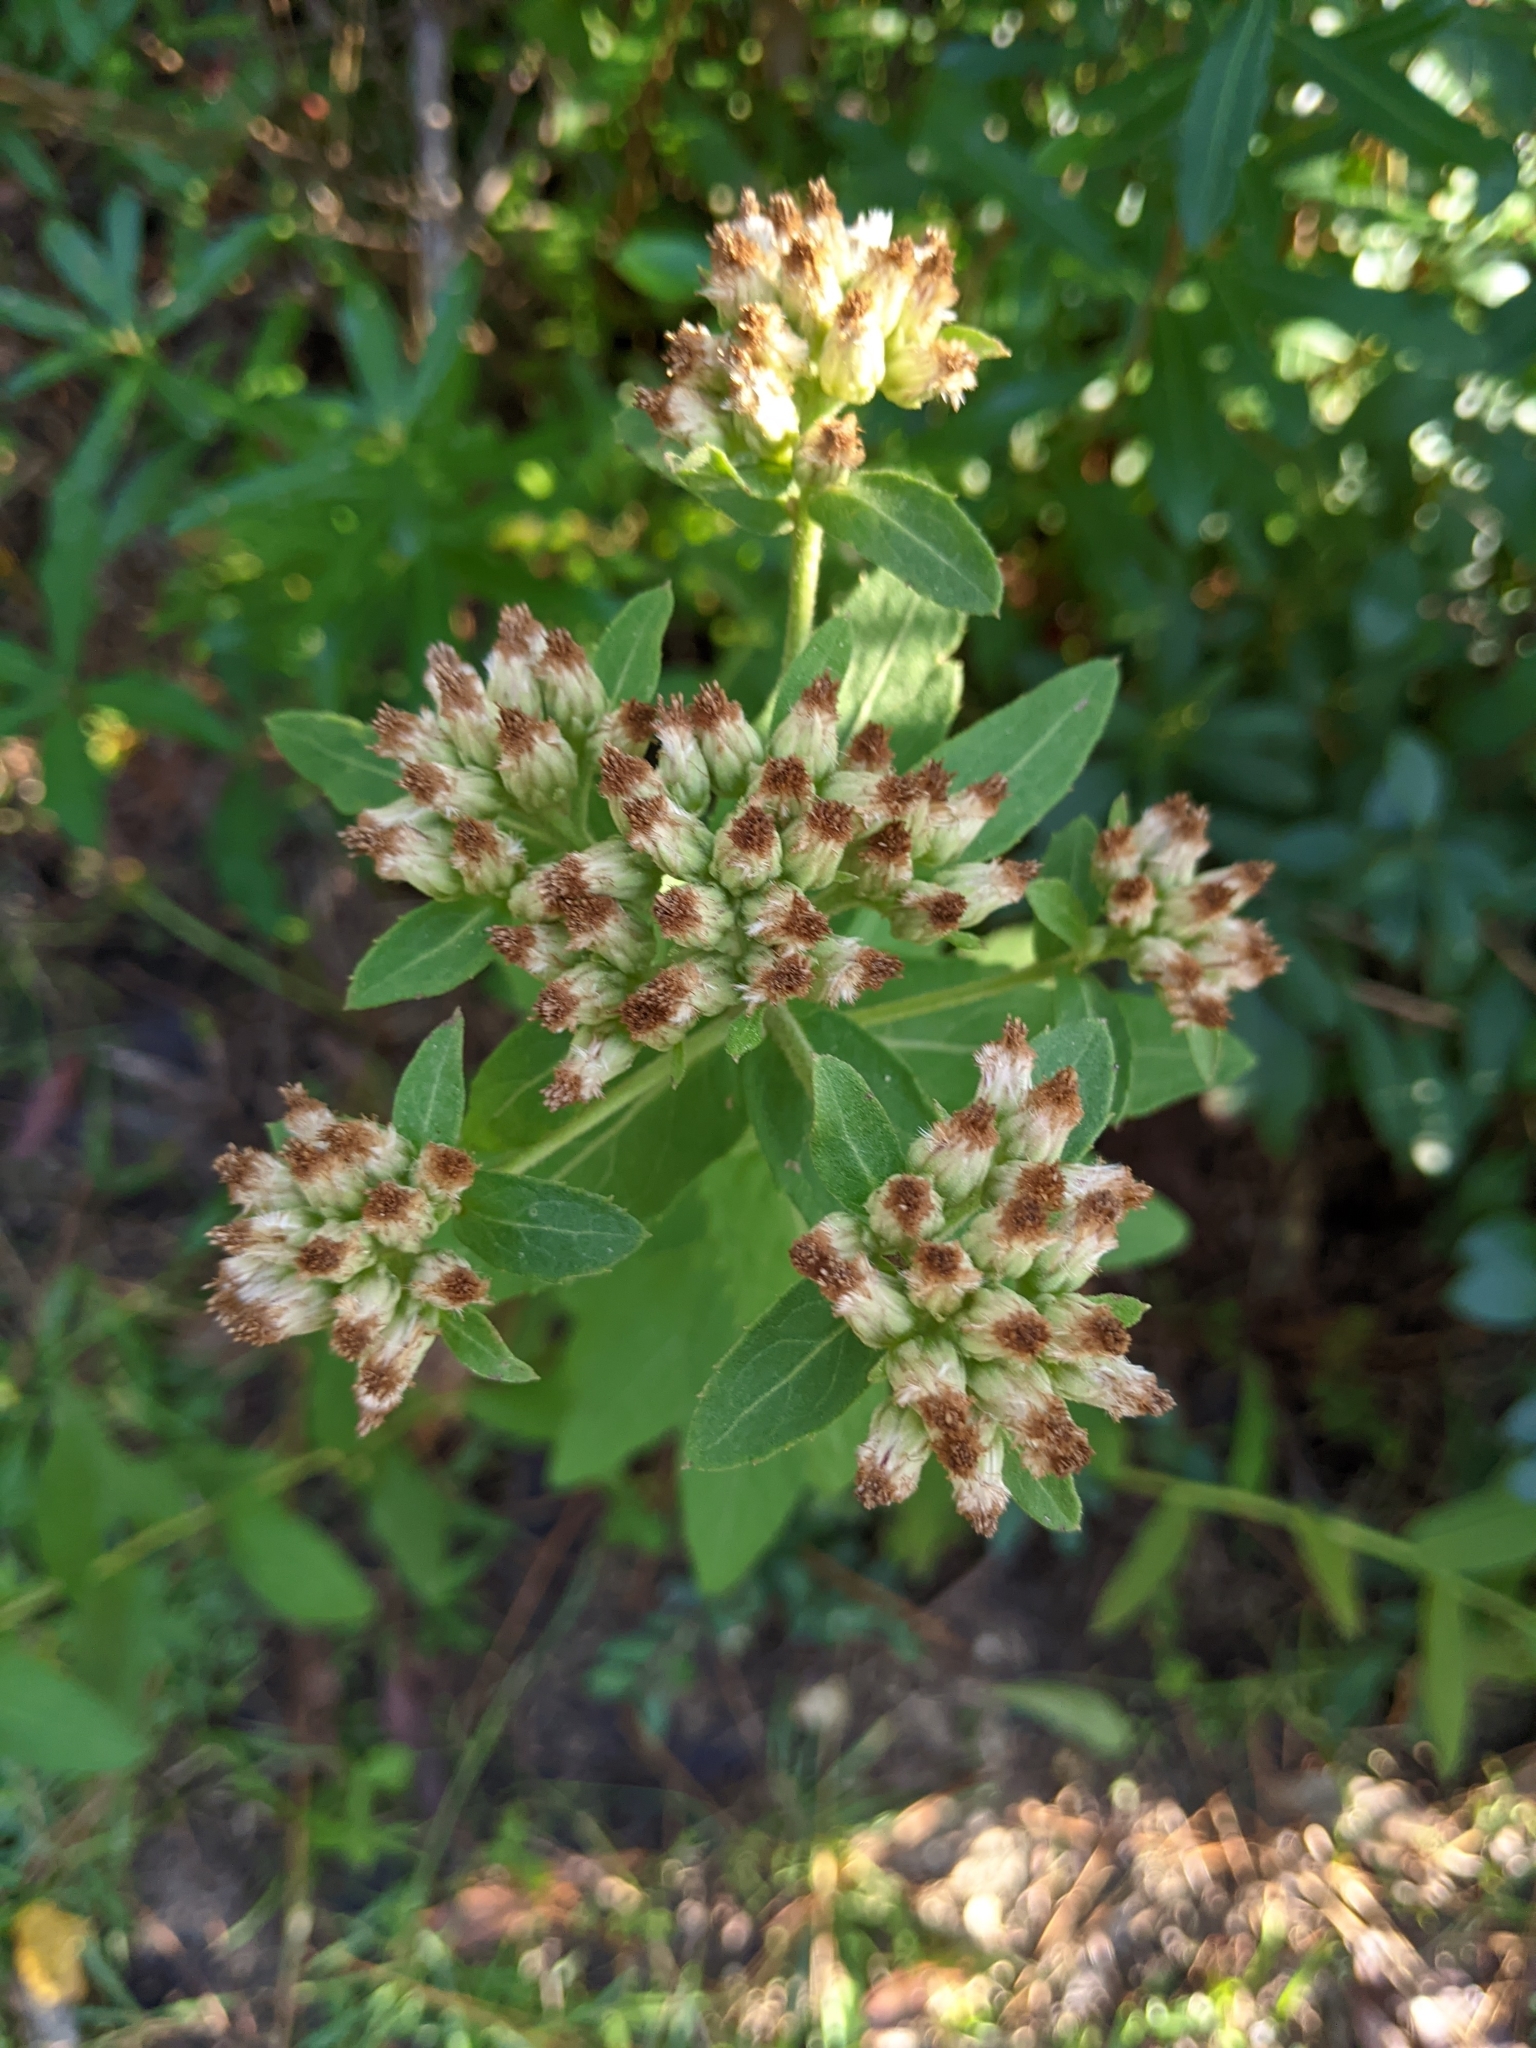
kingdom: Plantae
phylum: Tracheophyta
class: Magnoliopsida
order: Asterales
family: Asteraceae
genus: Pluchea
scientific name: Pluchea foetida
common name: Stinking camphorweed
